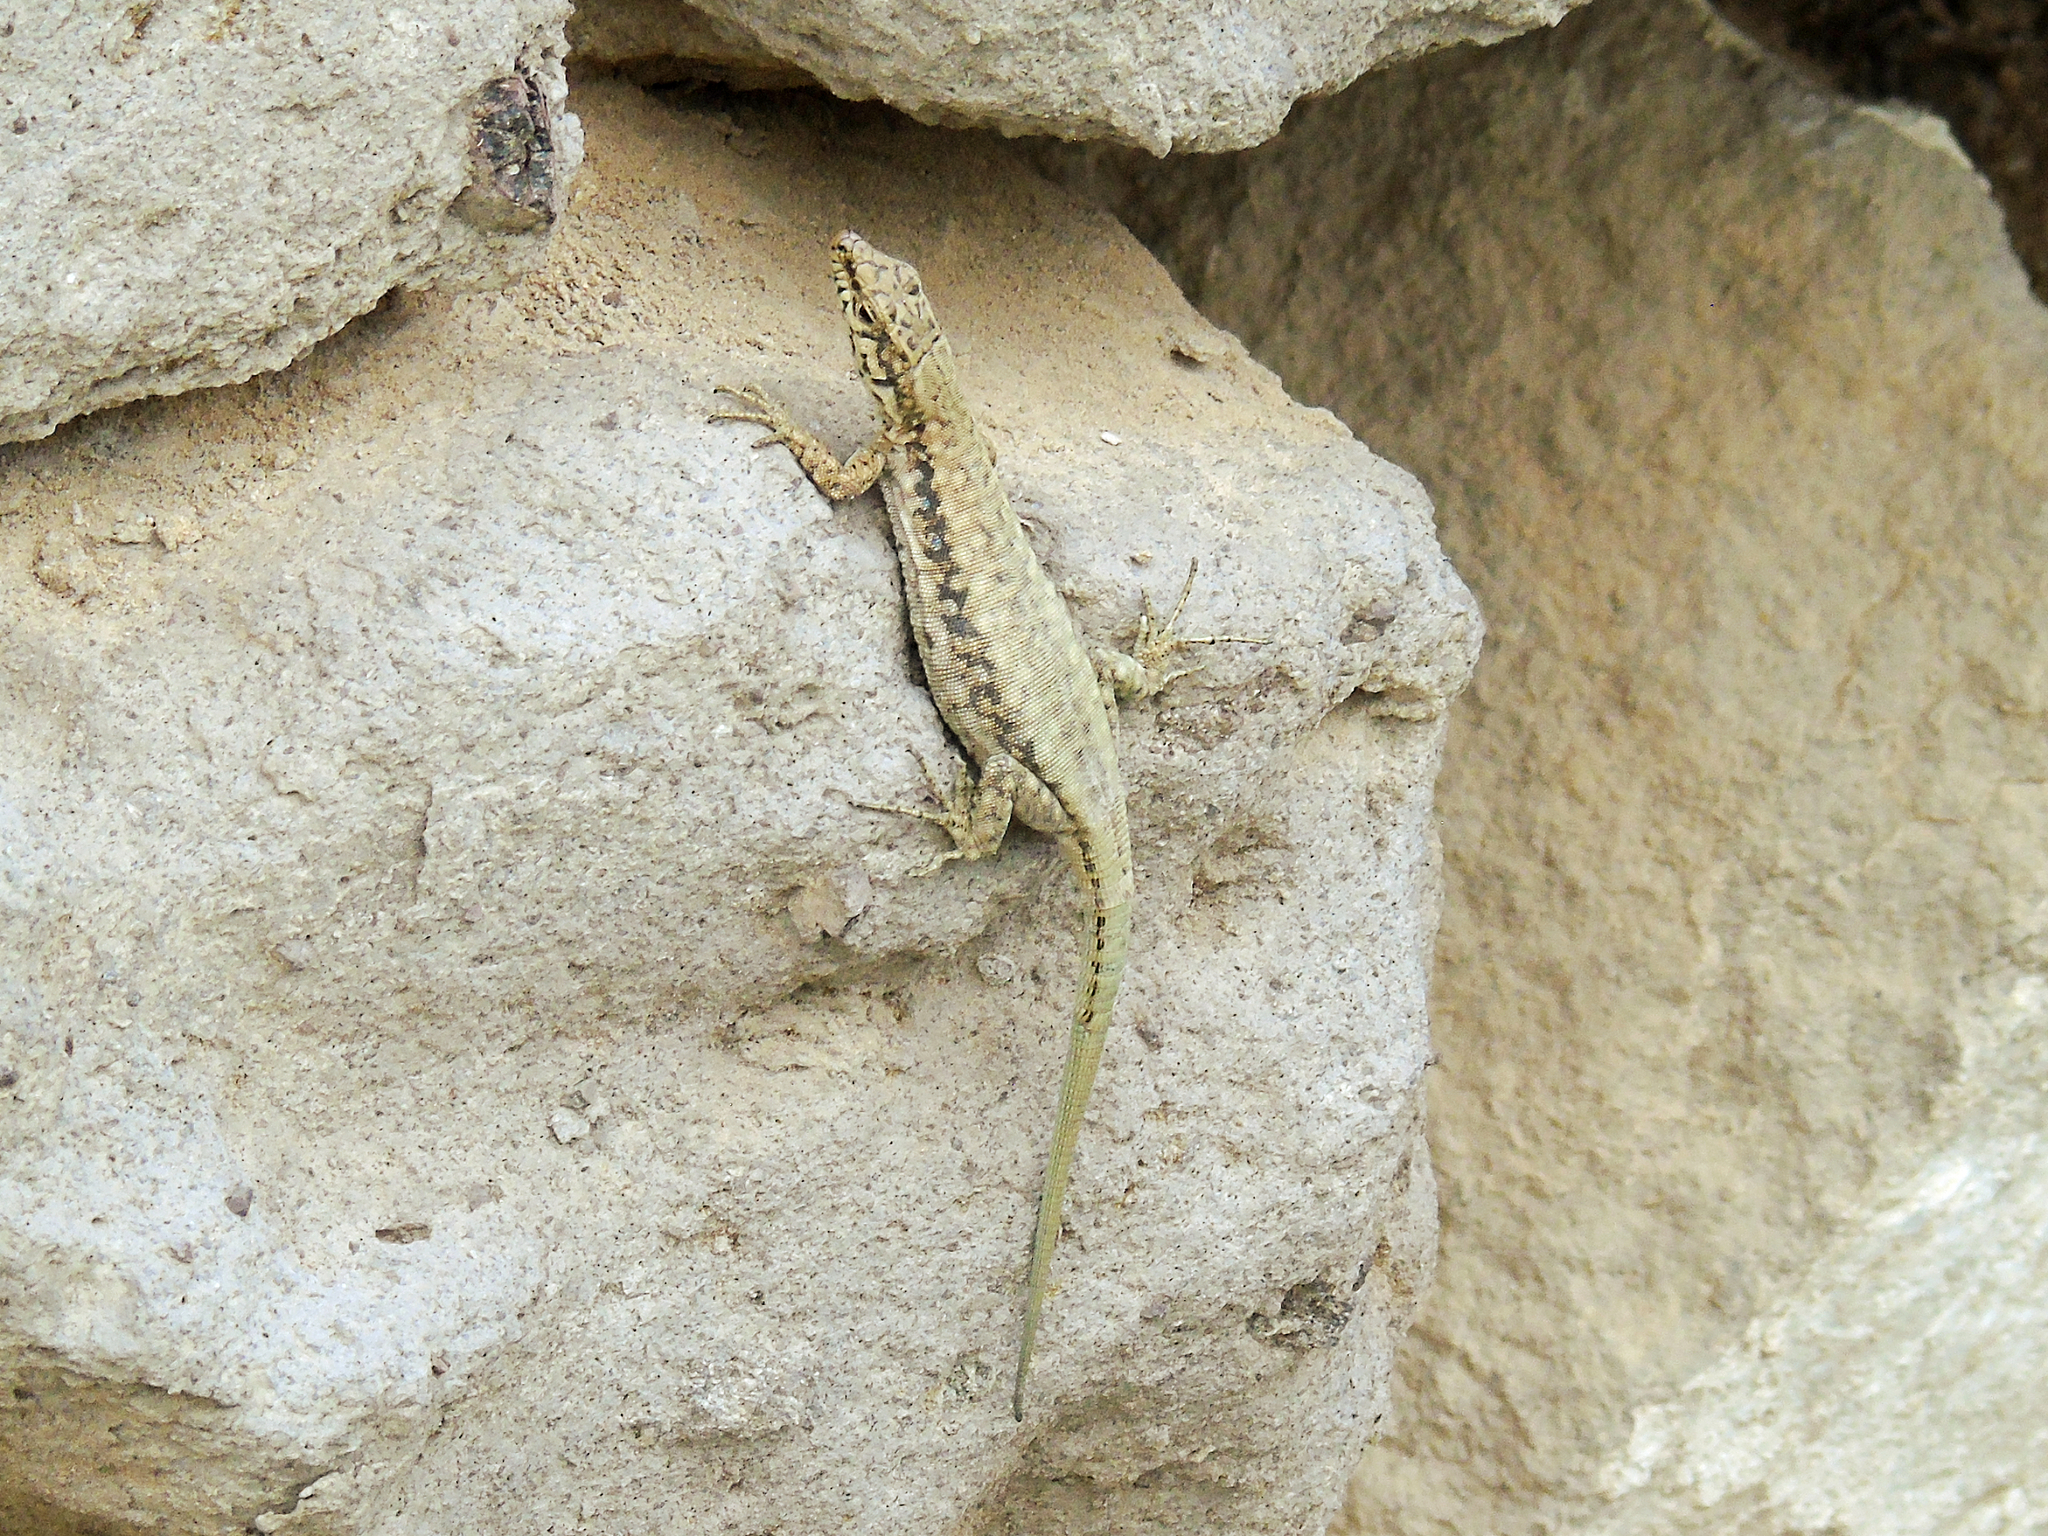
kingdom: Animalia
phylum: Chordata
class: Squamata
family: Lacertidae
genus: Apathya
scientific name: Apathya cappadocica
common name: Anatolian lizard
